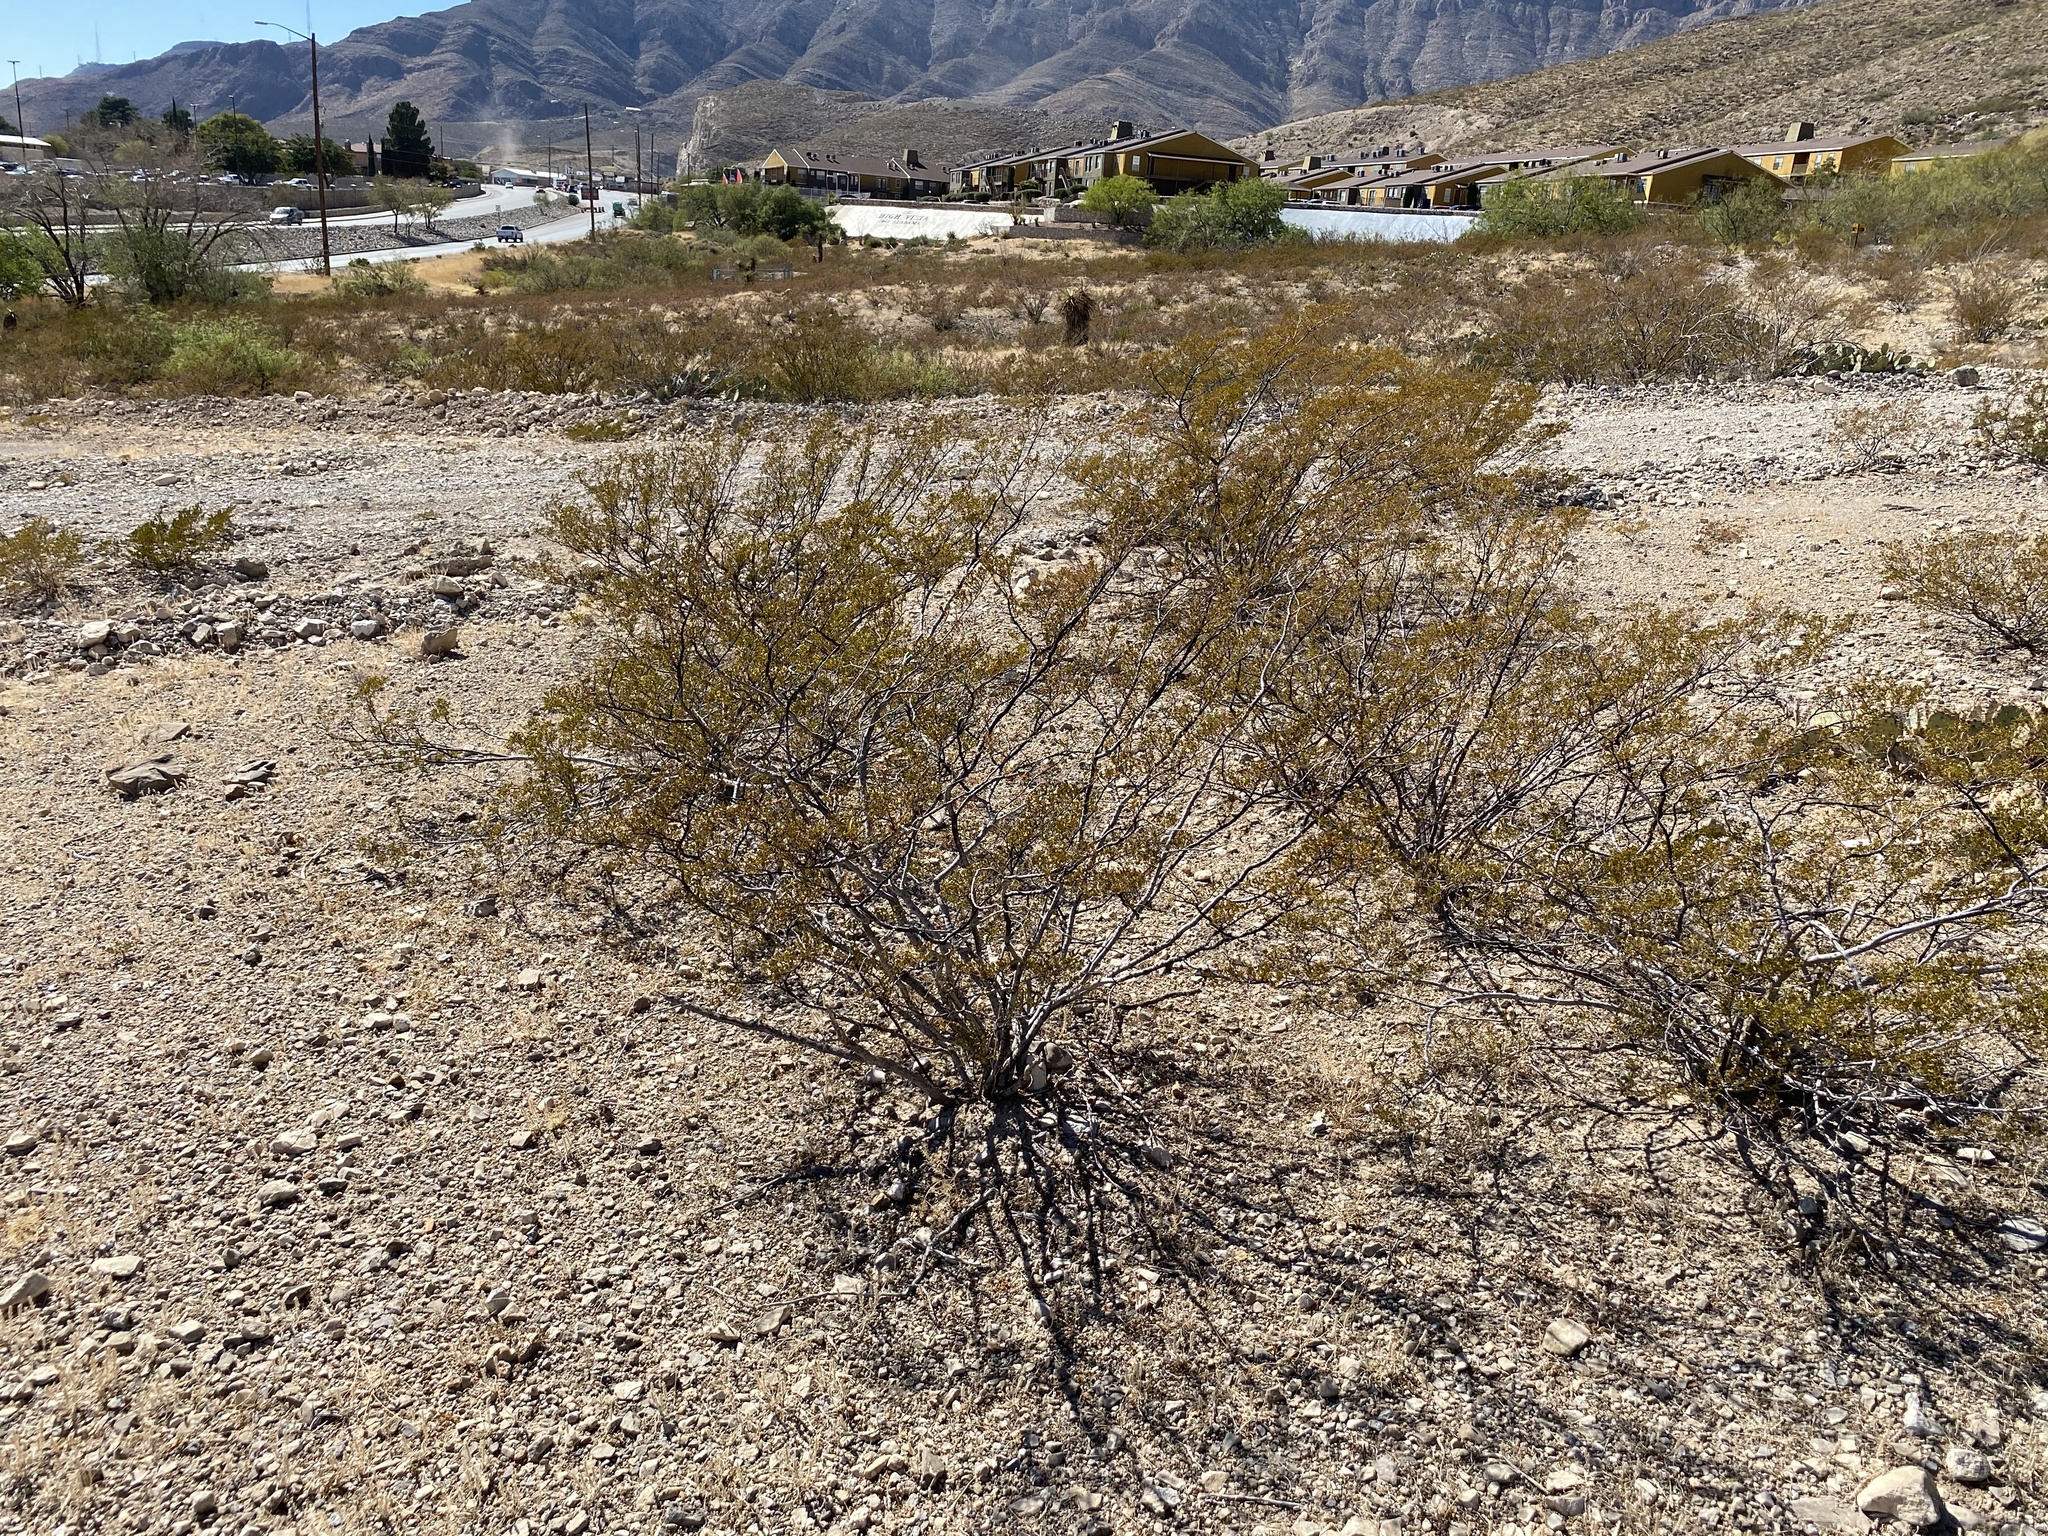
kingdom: Plantae
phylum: Tracheophyta
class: Magnoliopsida
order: Zygophyllales
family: Zygophyllaceae
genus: Larrea
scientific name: Larrea tridentata
